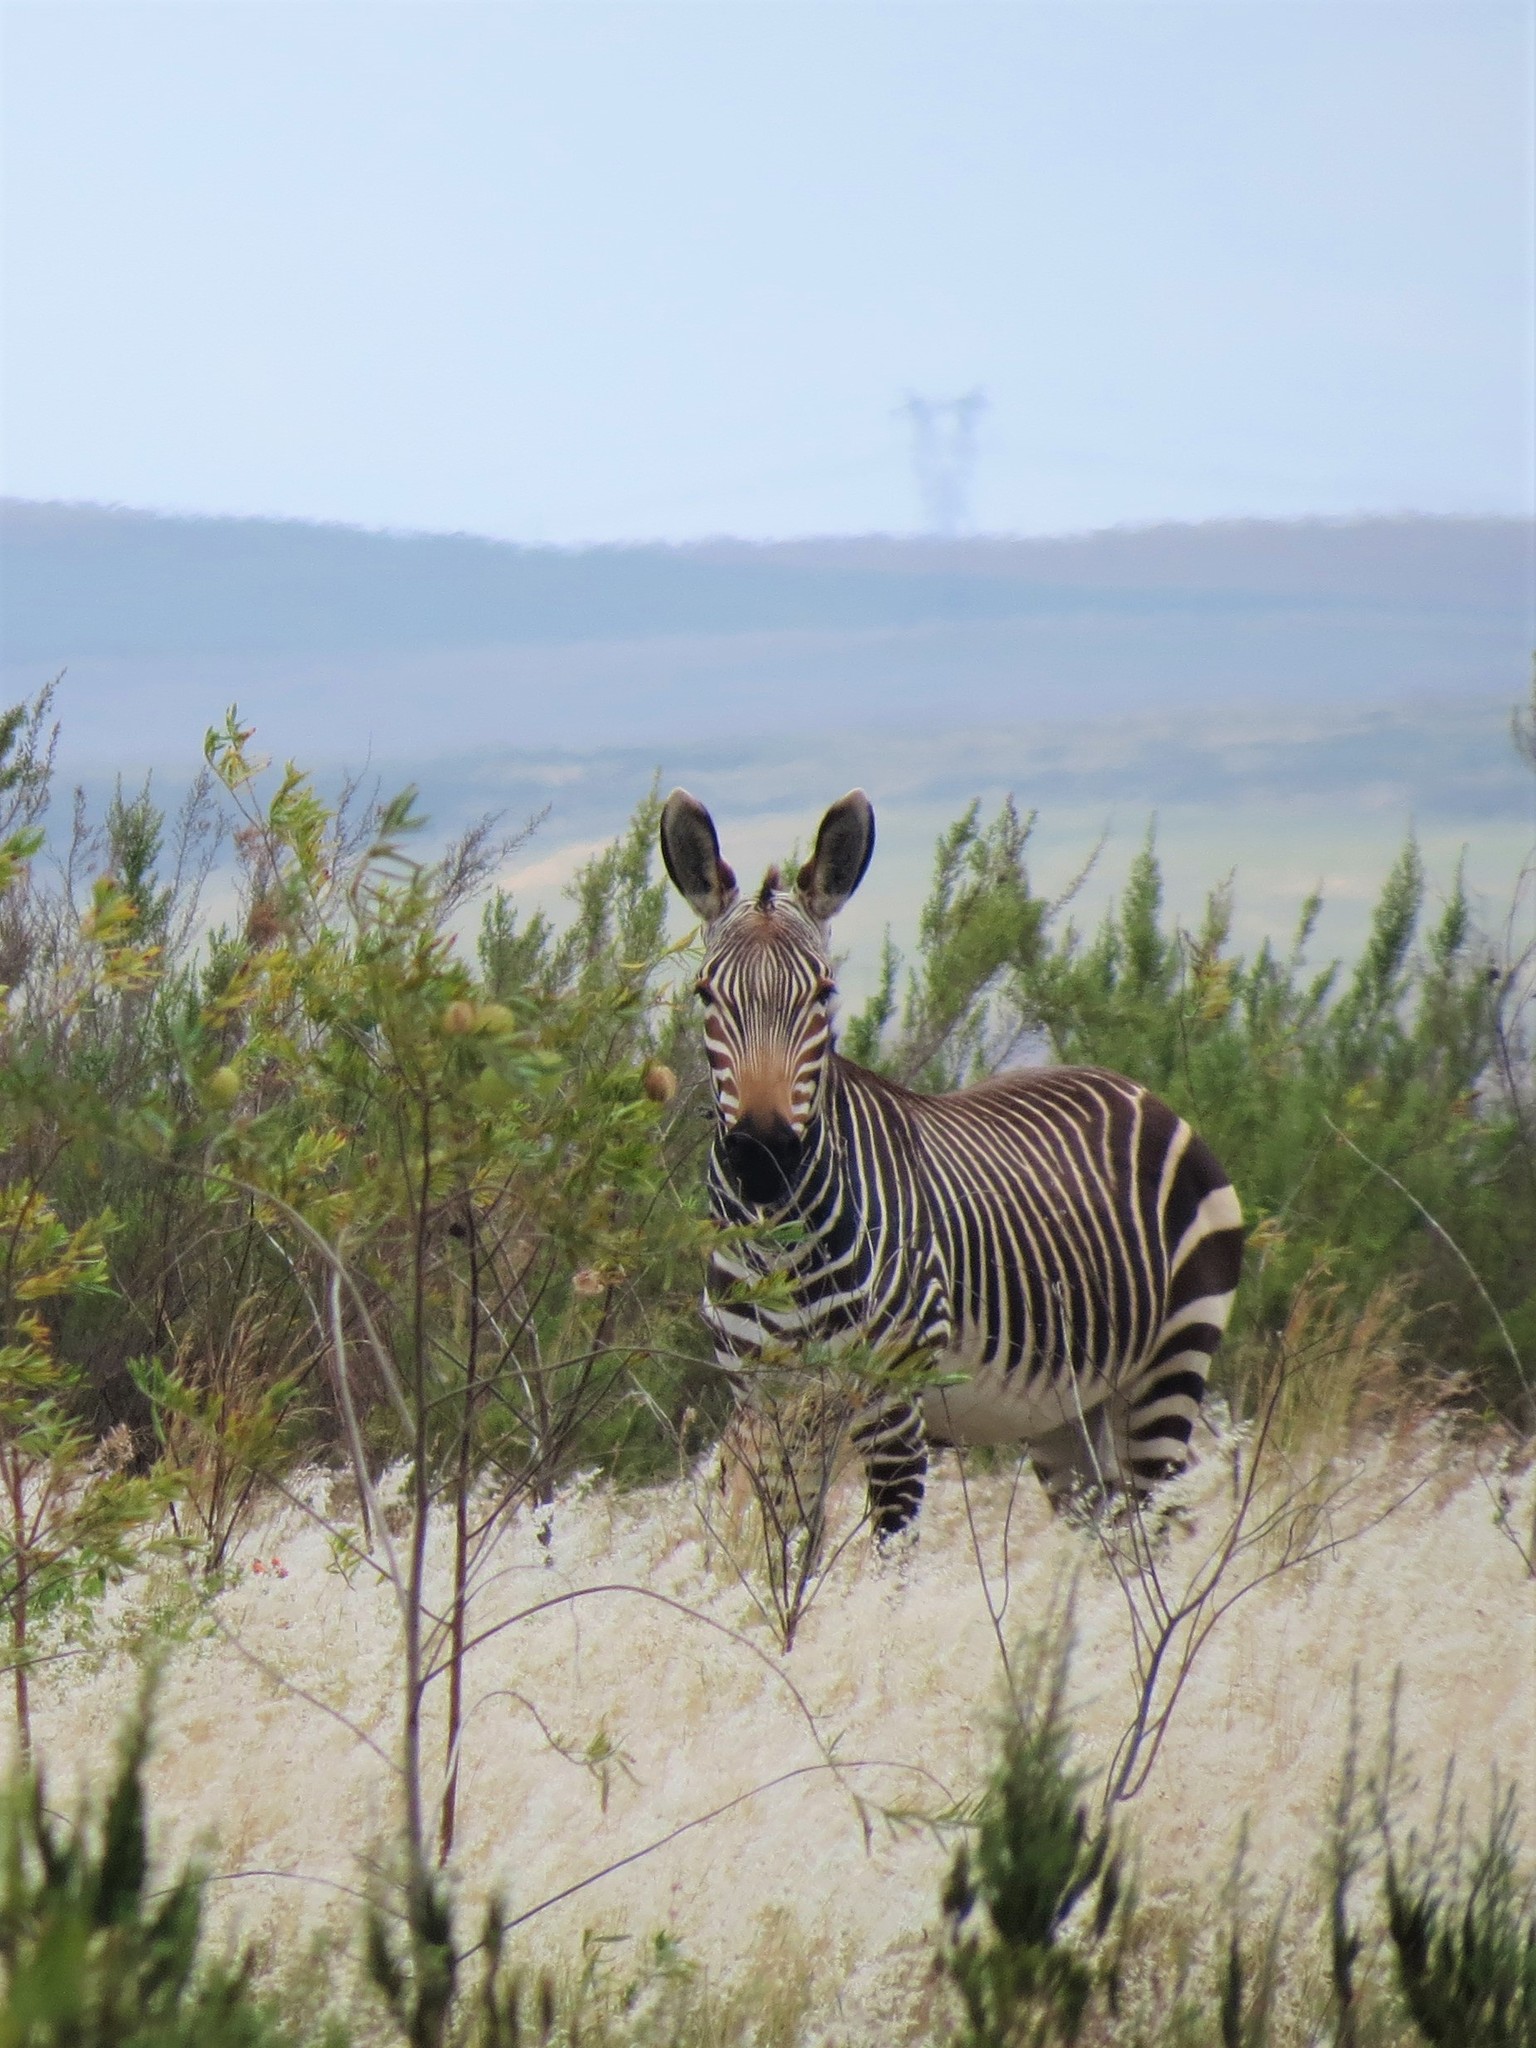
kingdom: Animalia
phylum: Chordata
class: Mammalia
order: Perissodactyla
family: Equidae
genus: Equus
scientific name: Equus zebra
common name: Mountain zebra
